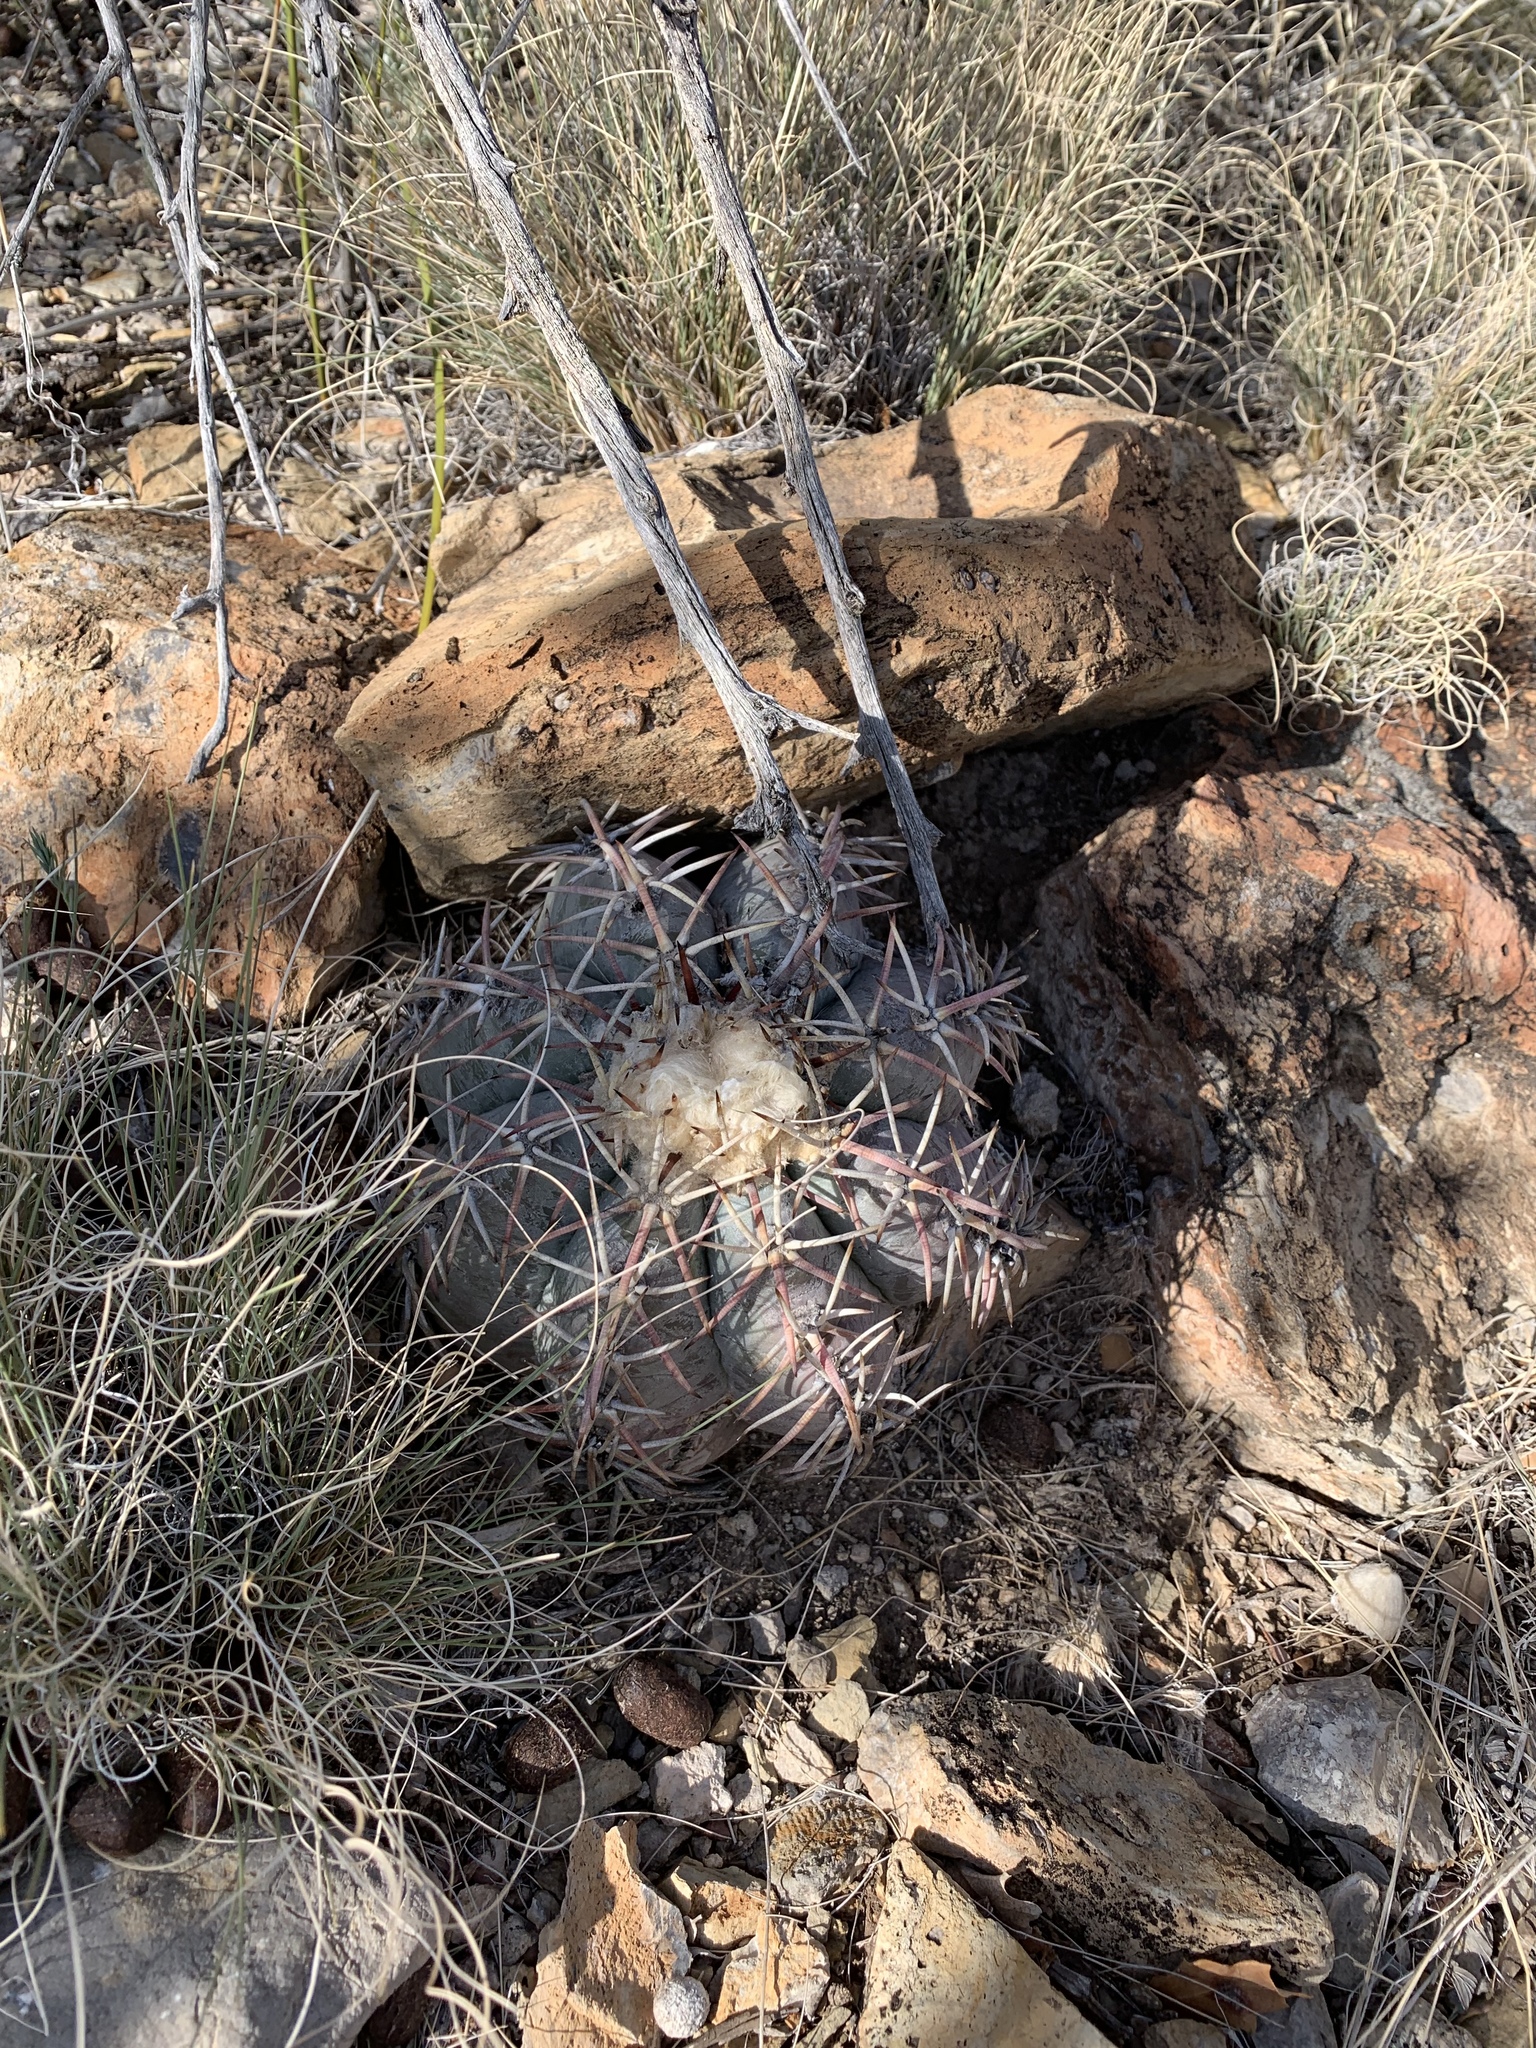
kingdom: Plantae
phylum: Tracheophyta
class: Magnoliopsida
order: Caryophyllales
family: Cactaceae
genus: Echinocactus
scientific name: Echinocactus horizonthalonius
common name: Devilshead
